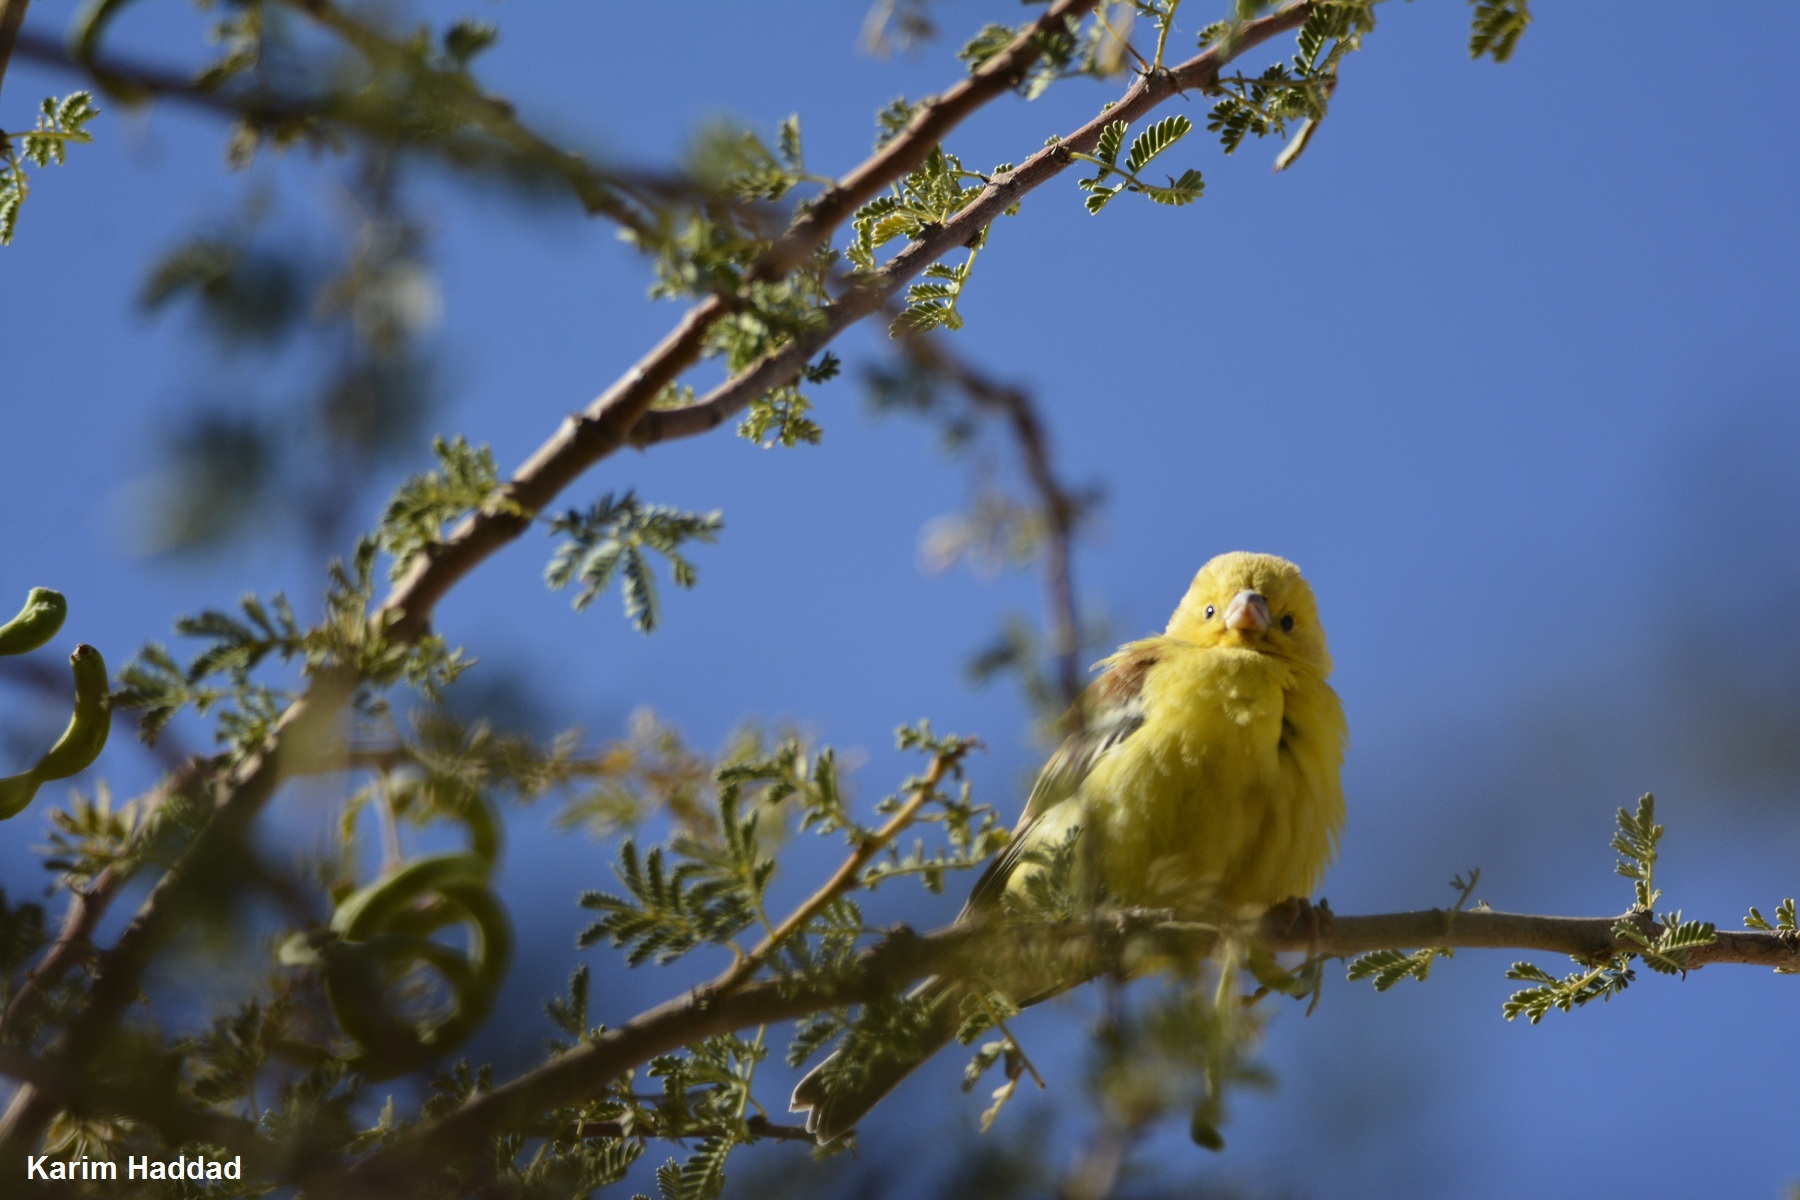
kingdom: Animalia
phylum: Chordata
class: Aves
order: Passeriformes
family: Passeridae
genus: Passer
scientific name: Passer luteus
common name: Sudan golden sparrow
